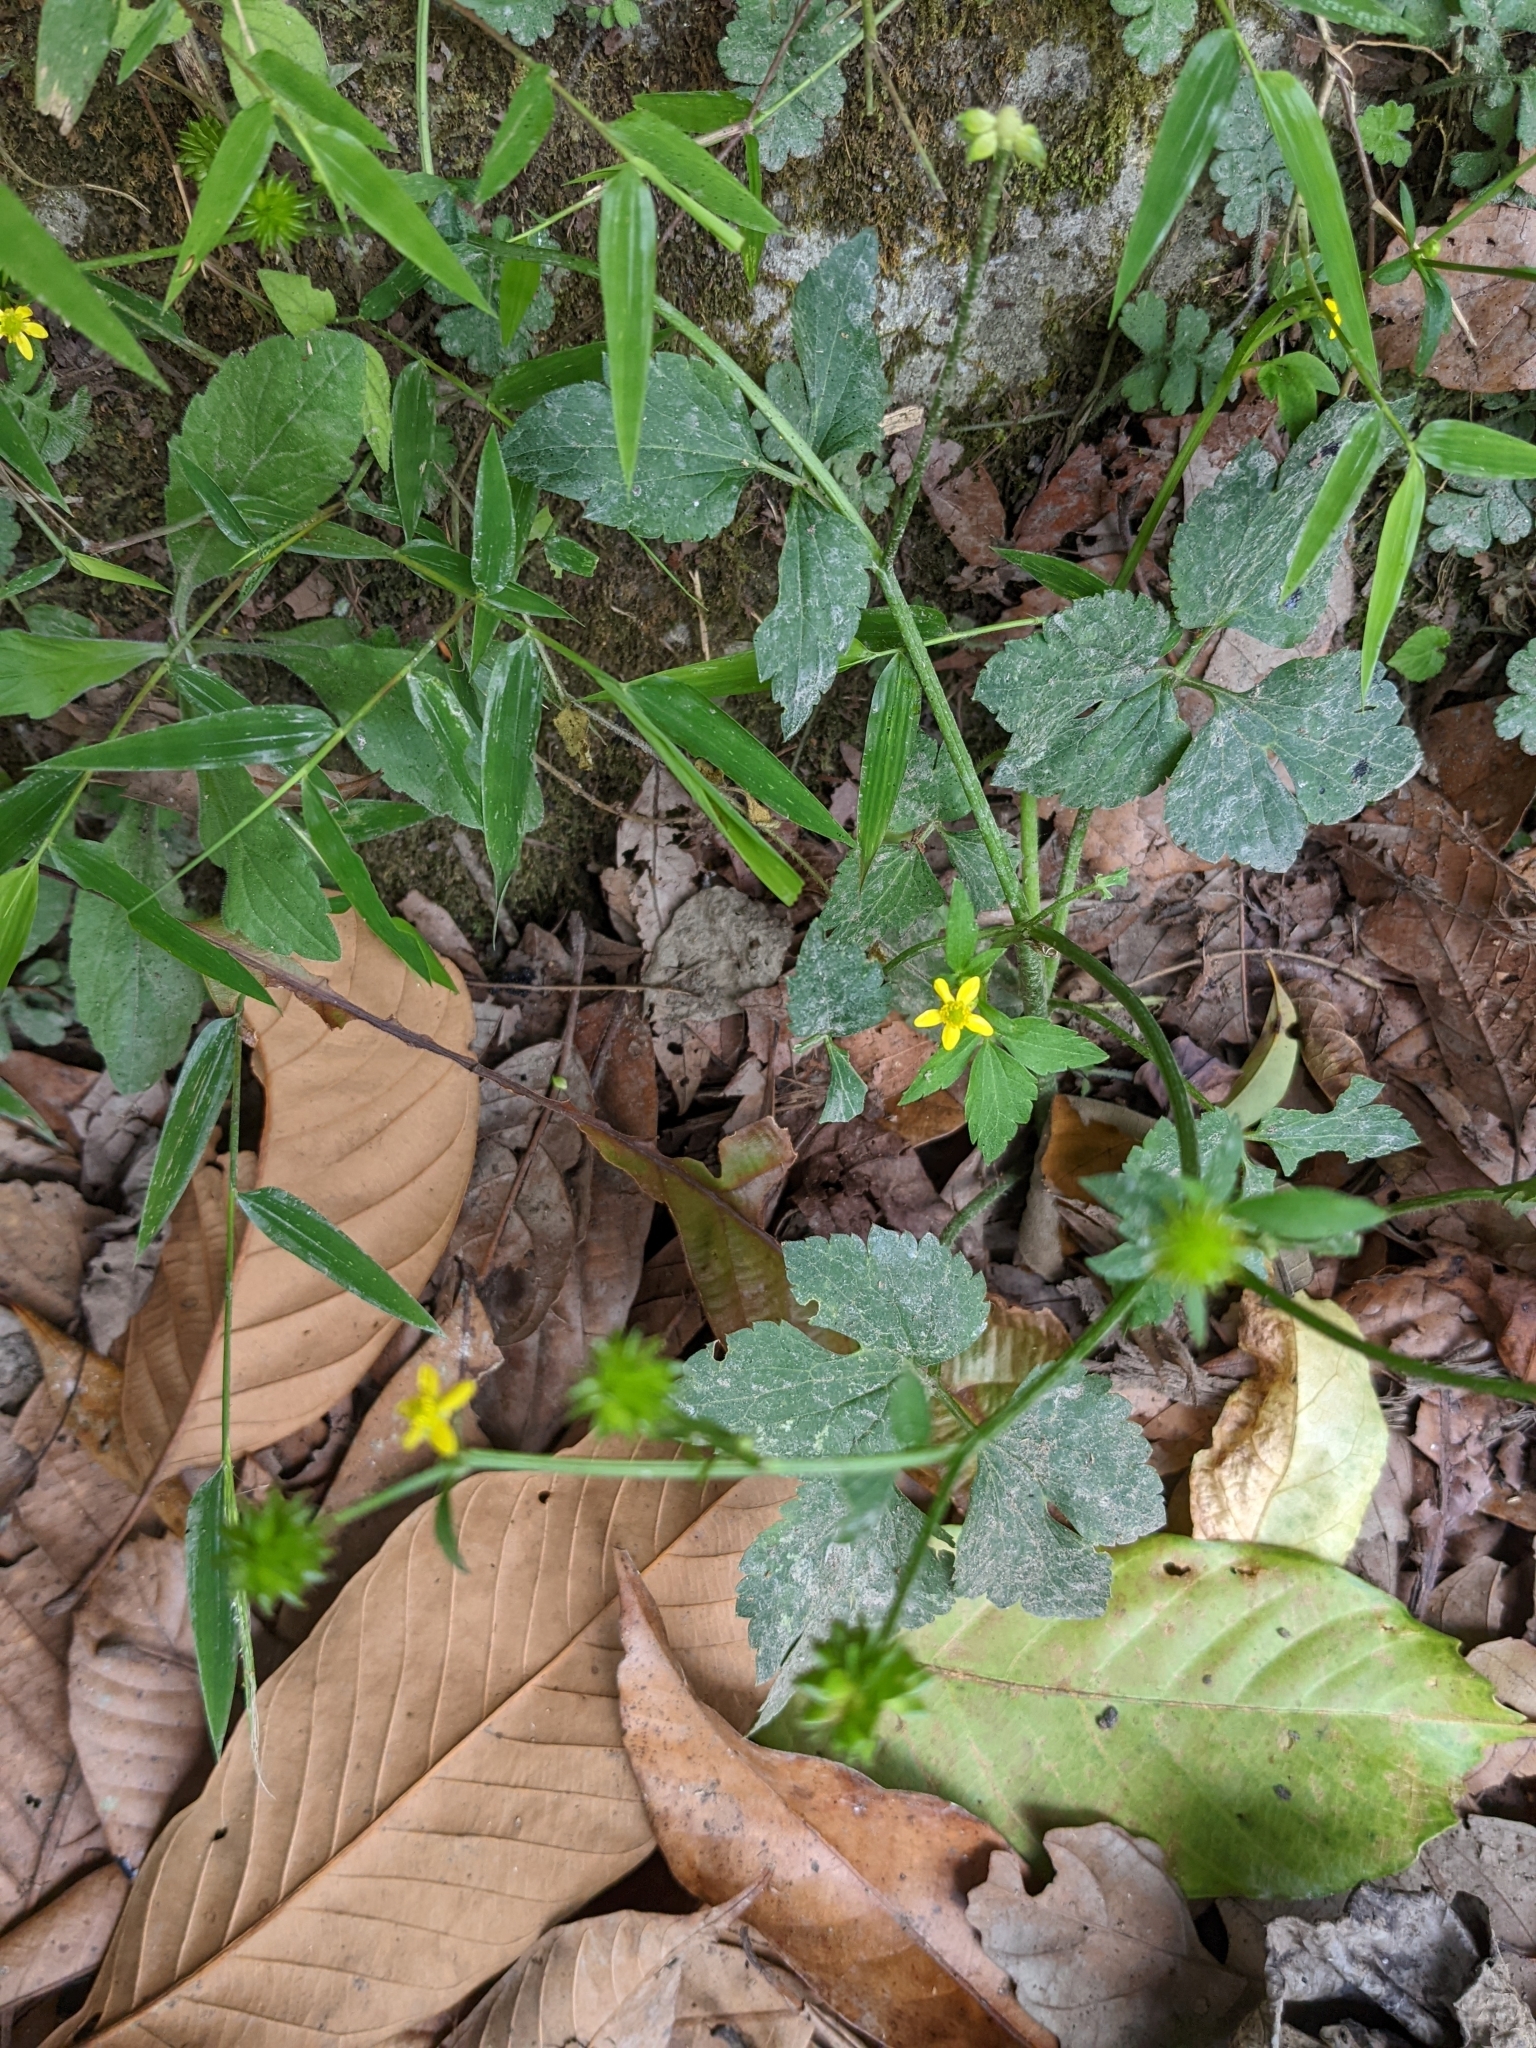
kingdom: Plantae
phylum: Tracheophyta
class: Magnoliopsida
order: Ranunculales
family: Ranunculaceae
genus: Ranunculus
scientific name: Ranunculus cantoniensis
